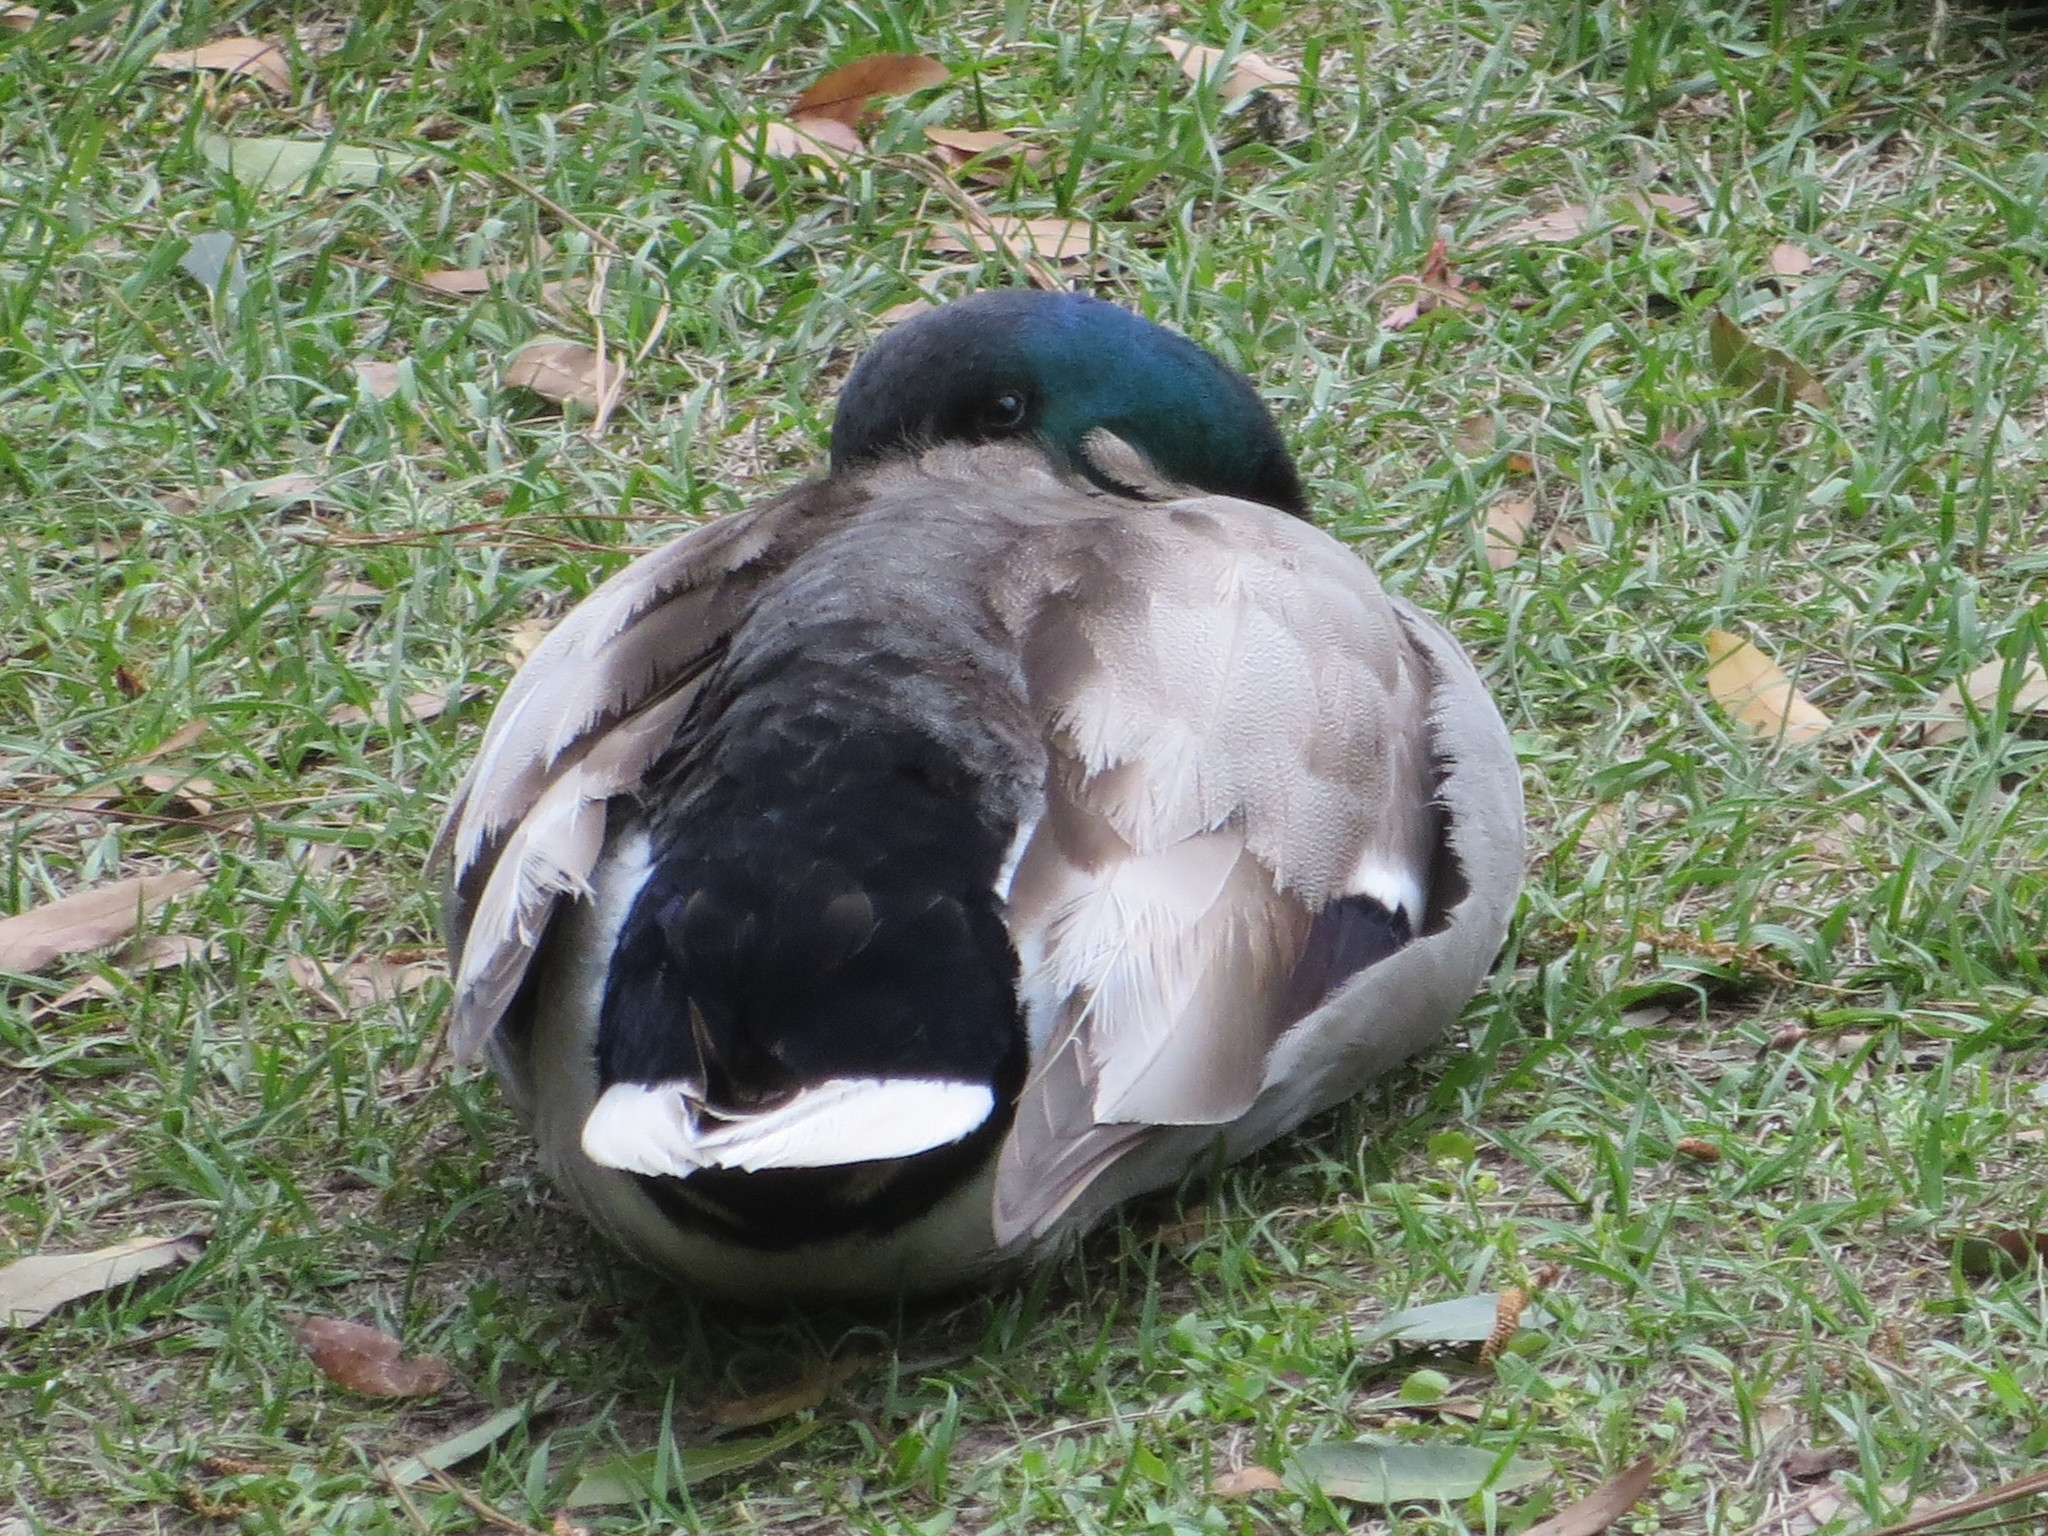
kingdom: Animalia
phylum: Chordata
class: Aves
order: Anseriformes
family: Anatidae
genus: Anas
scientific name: Anas platyrhynchos
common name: Mallard
